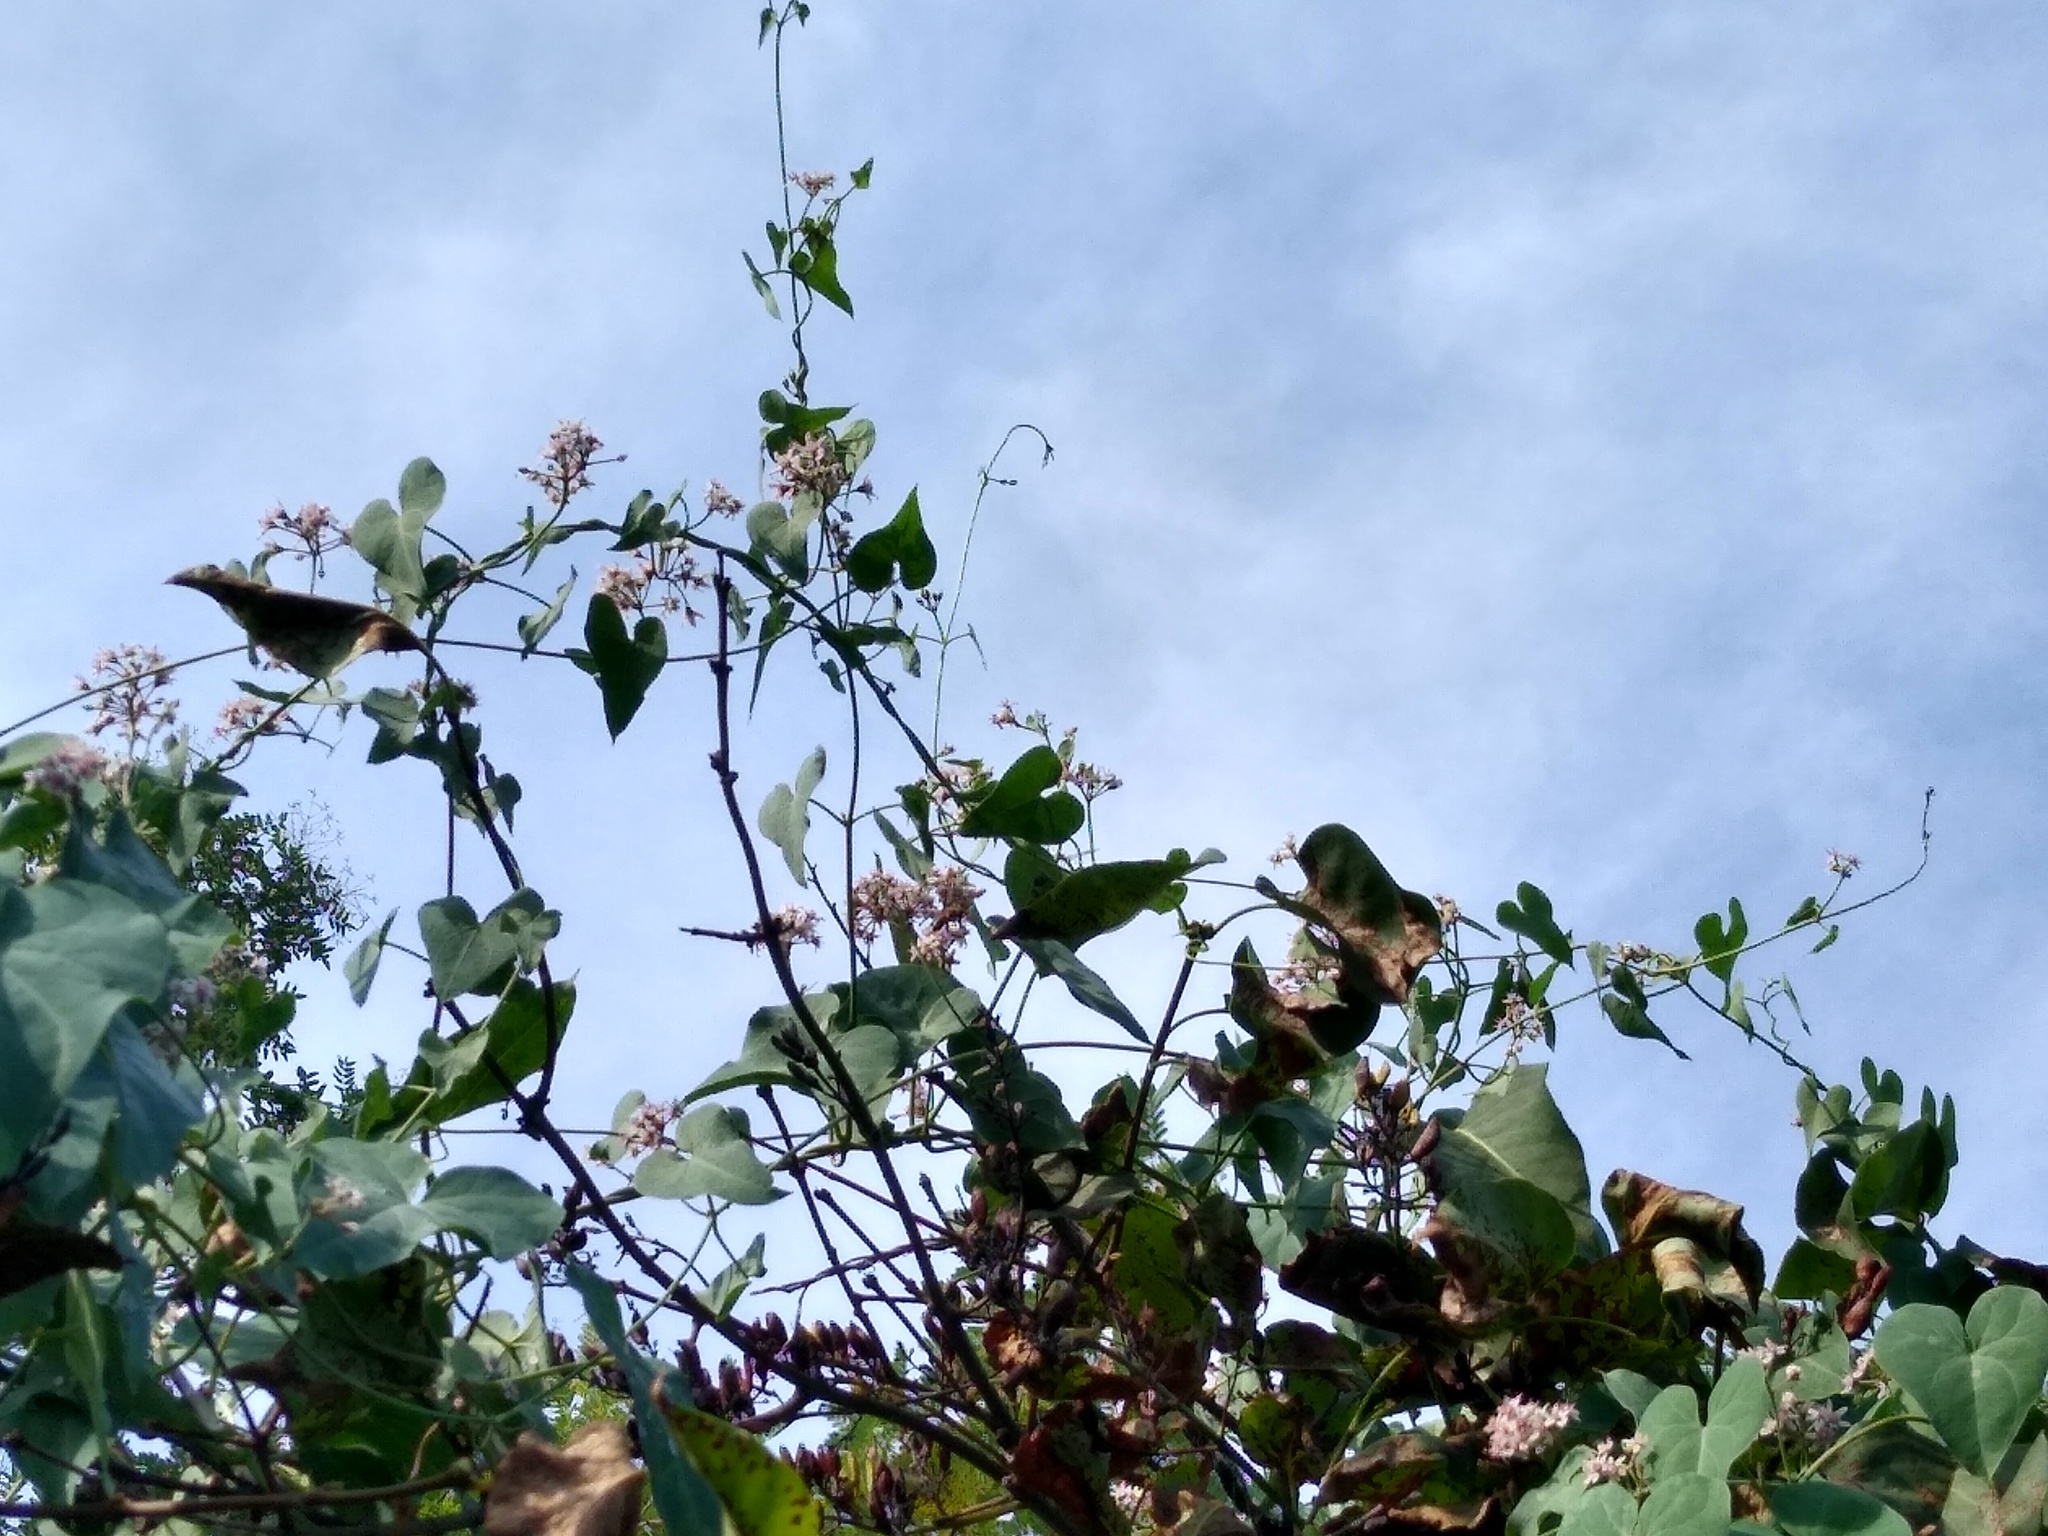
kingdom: Plantae
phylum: Tracheophyta
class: Magnoliopsida
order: Gentianales
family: Apocynaceae
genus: Cynanchum
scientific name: Cynanchum acutum
